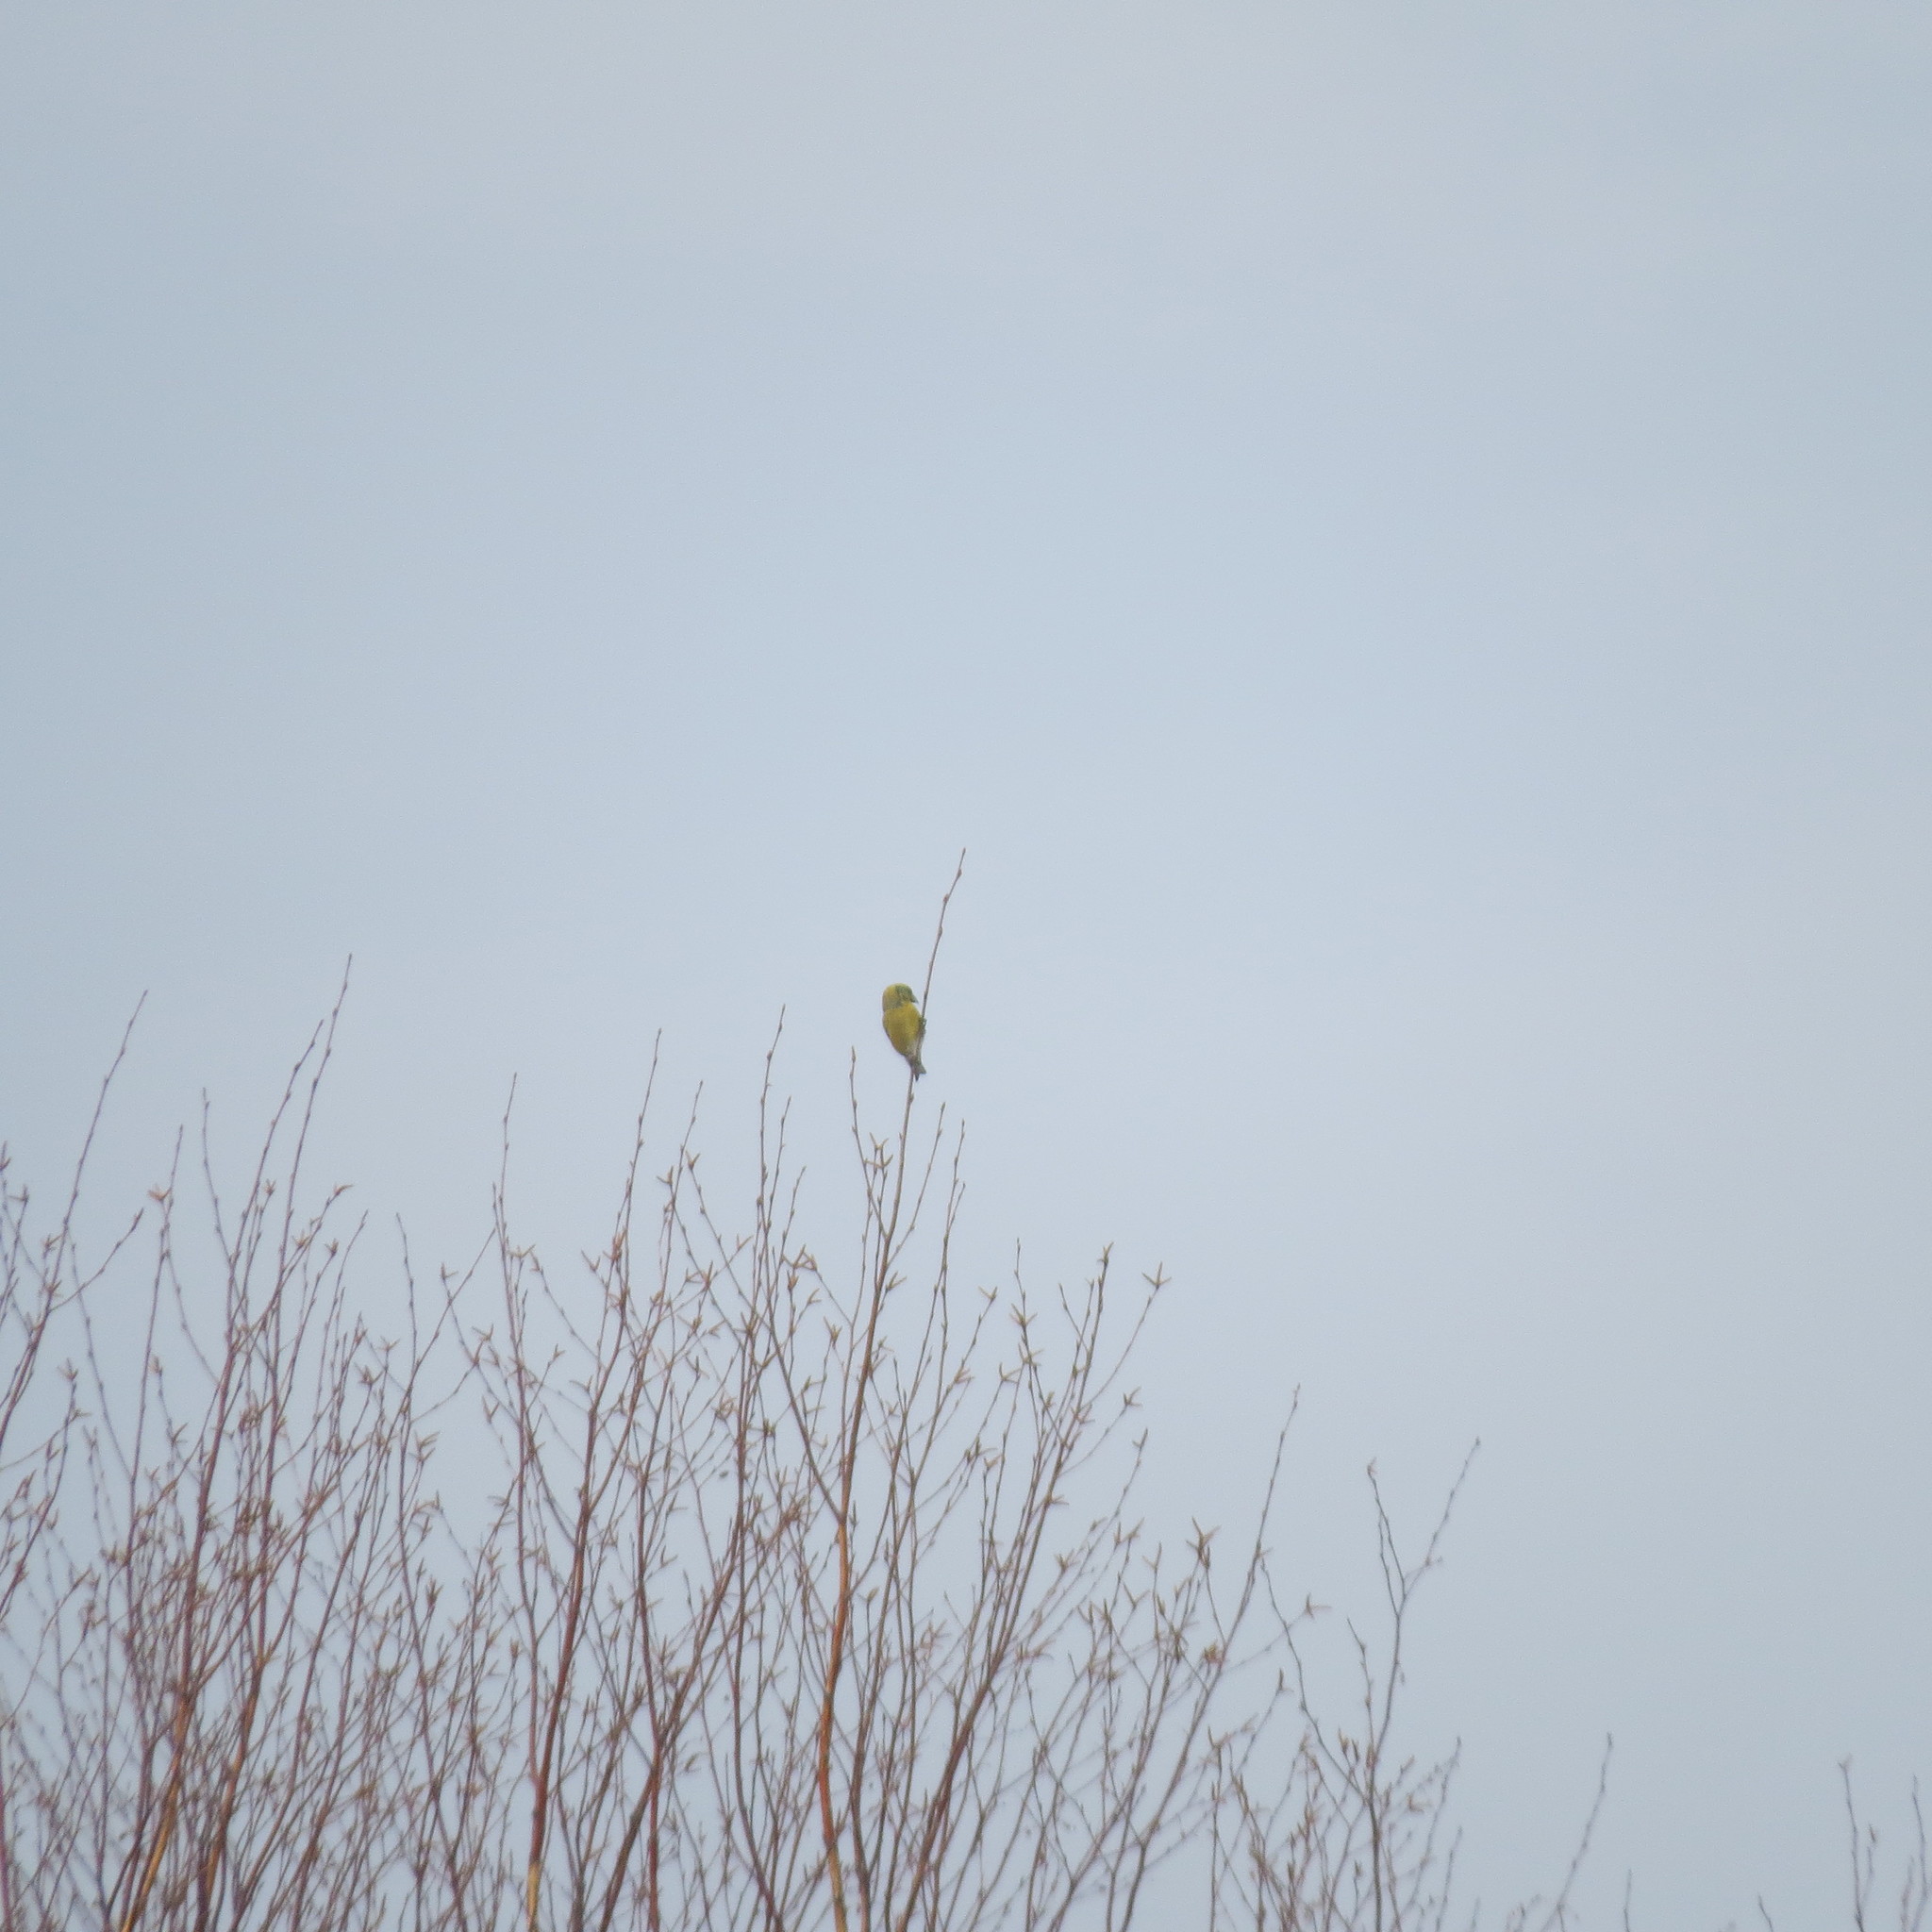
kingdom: Animalia
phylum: Chordata
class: Aves
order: Passeriformes
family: Fringillidae
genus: Loxia
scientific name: Loxia curvirostra
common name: Red crossbill
